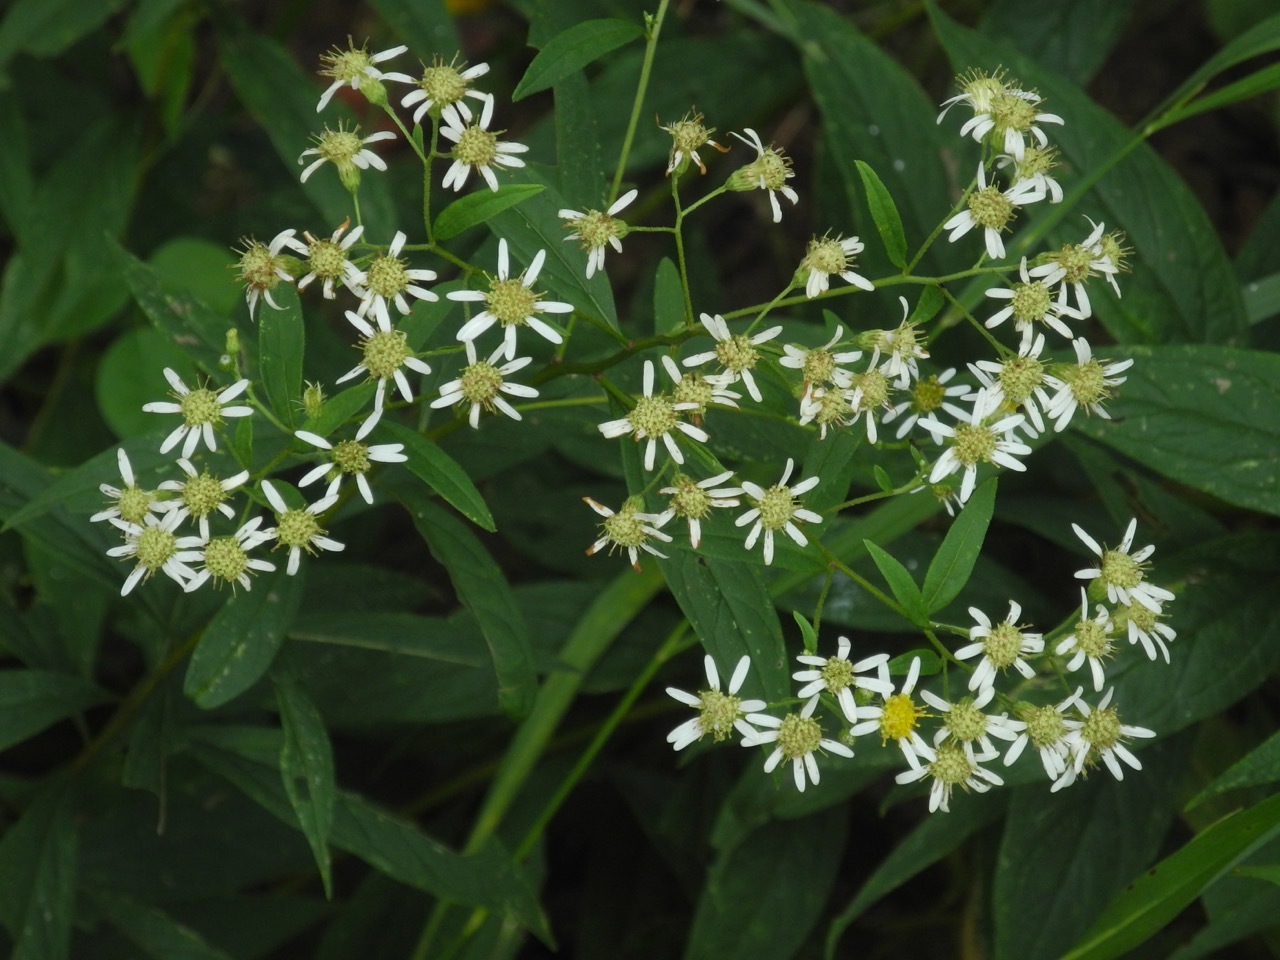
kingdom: Plantae
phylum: Tracheophyta
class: Magnoliopsida
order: Asterales
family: Asteraceae
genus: Doellingeria
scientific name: Doellingeria umbellata
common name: Flat-top white aster
